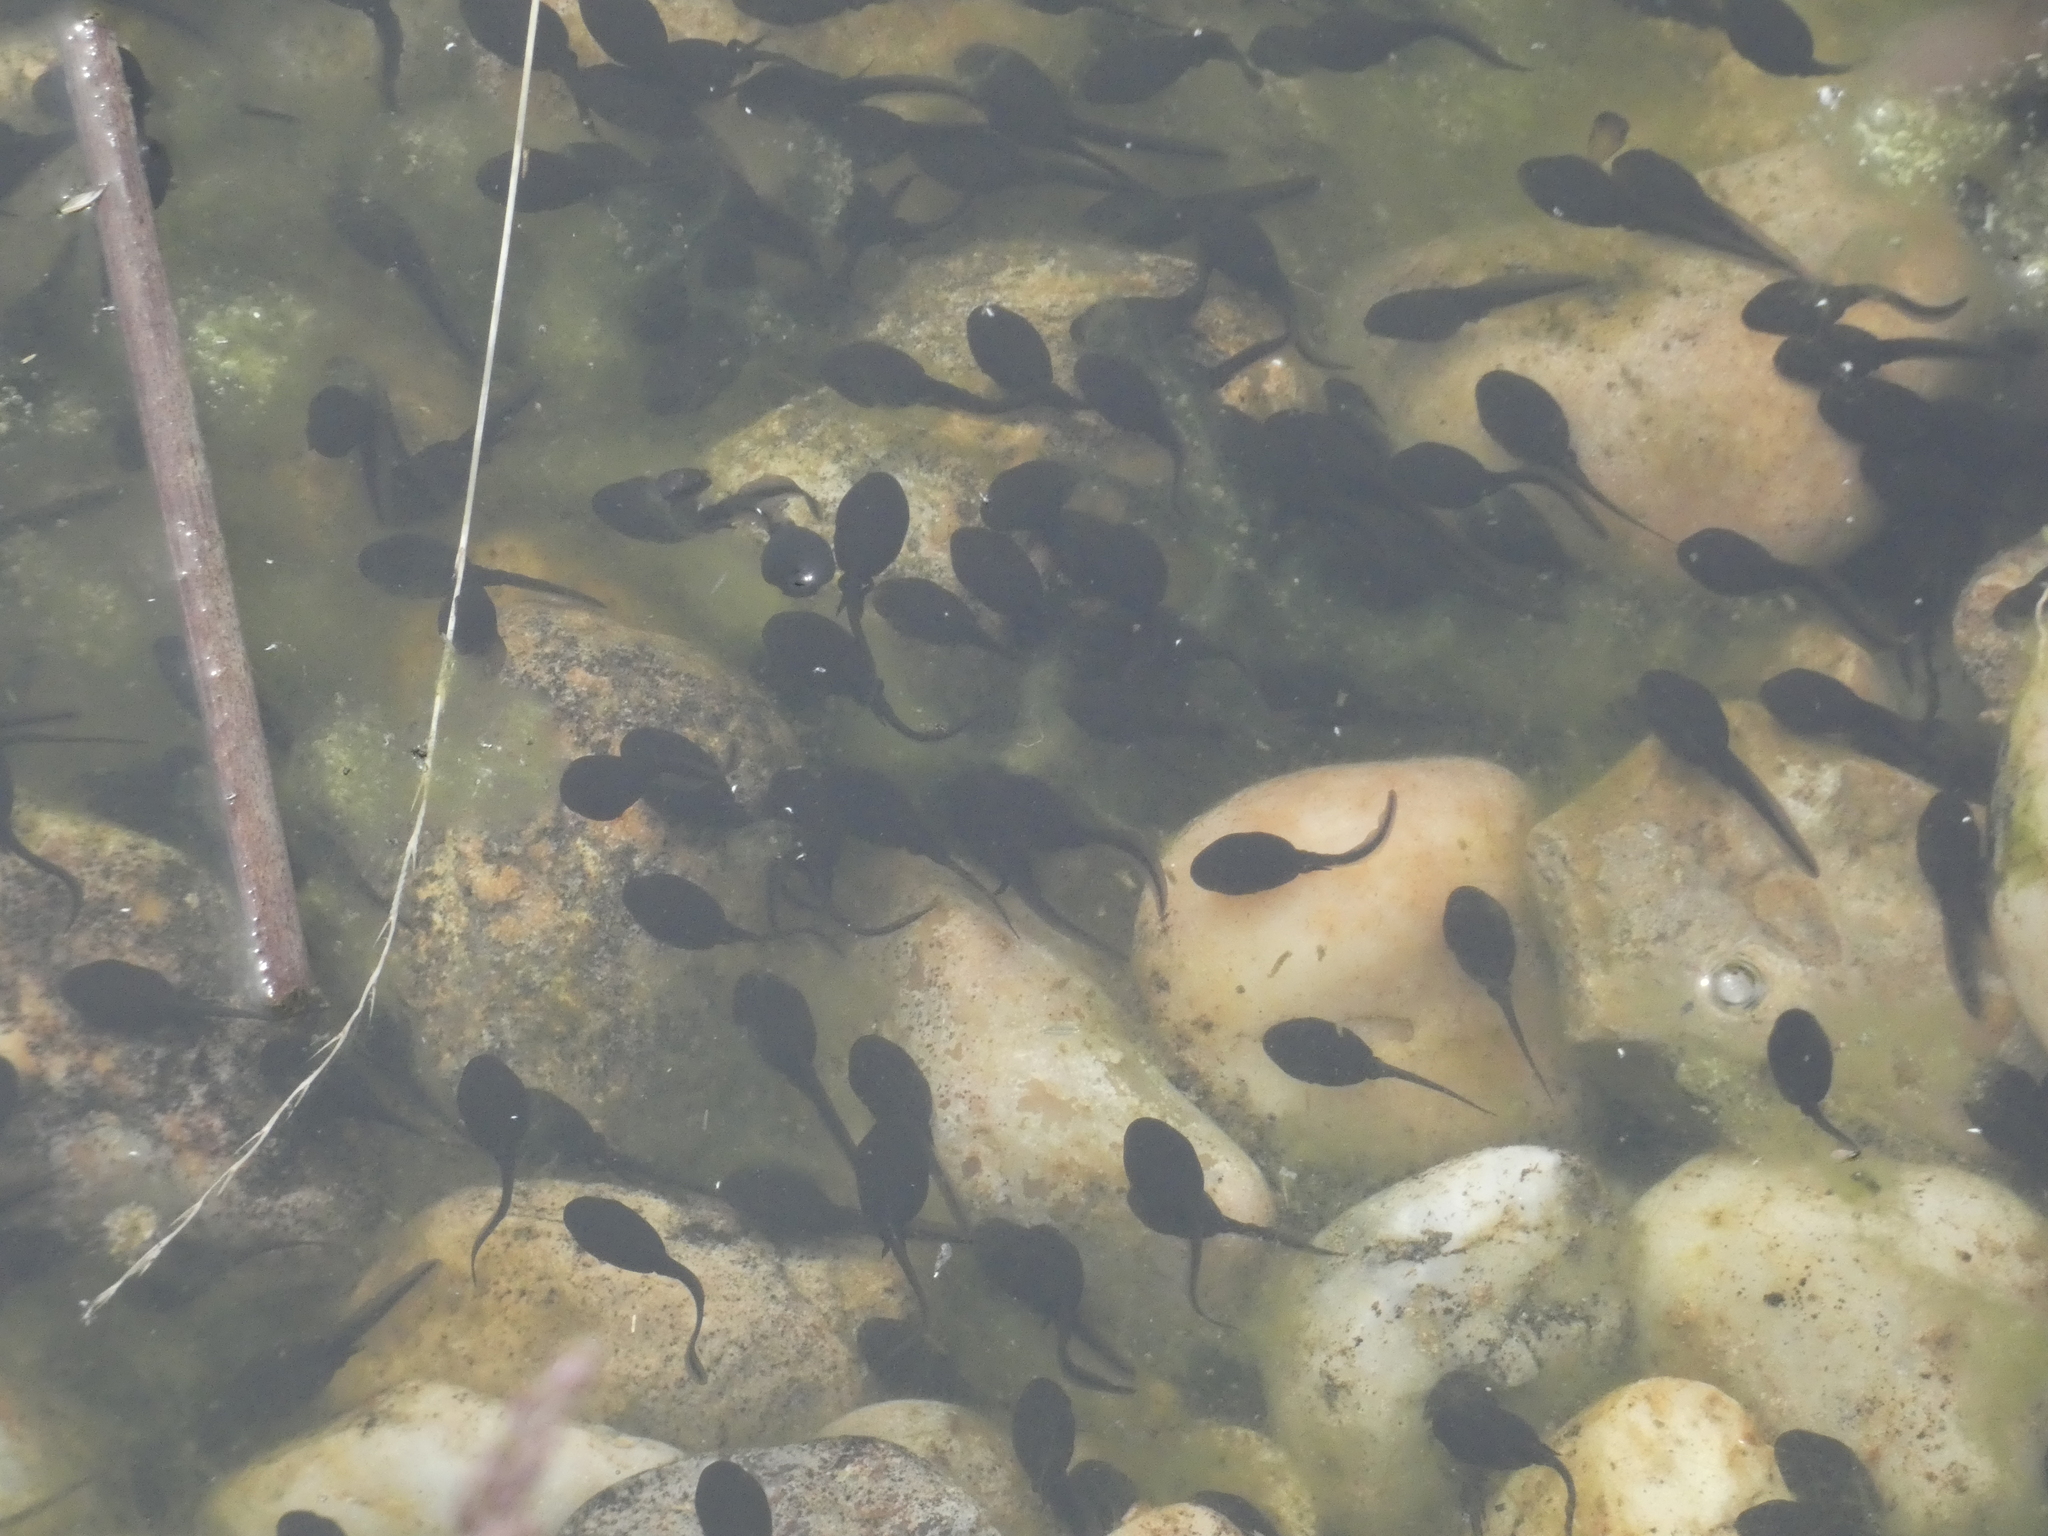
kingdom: Animalia
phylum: Chordata
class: Amphibia
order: Anura
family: Bufonidae
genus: Bufo
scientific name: Bufo bufo
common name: Common toad
